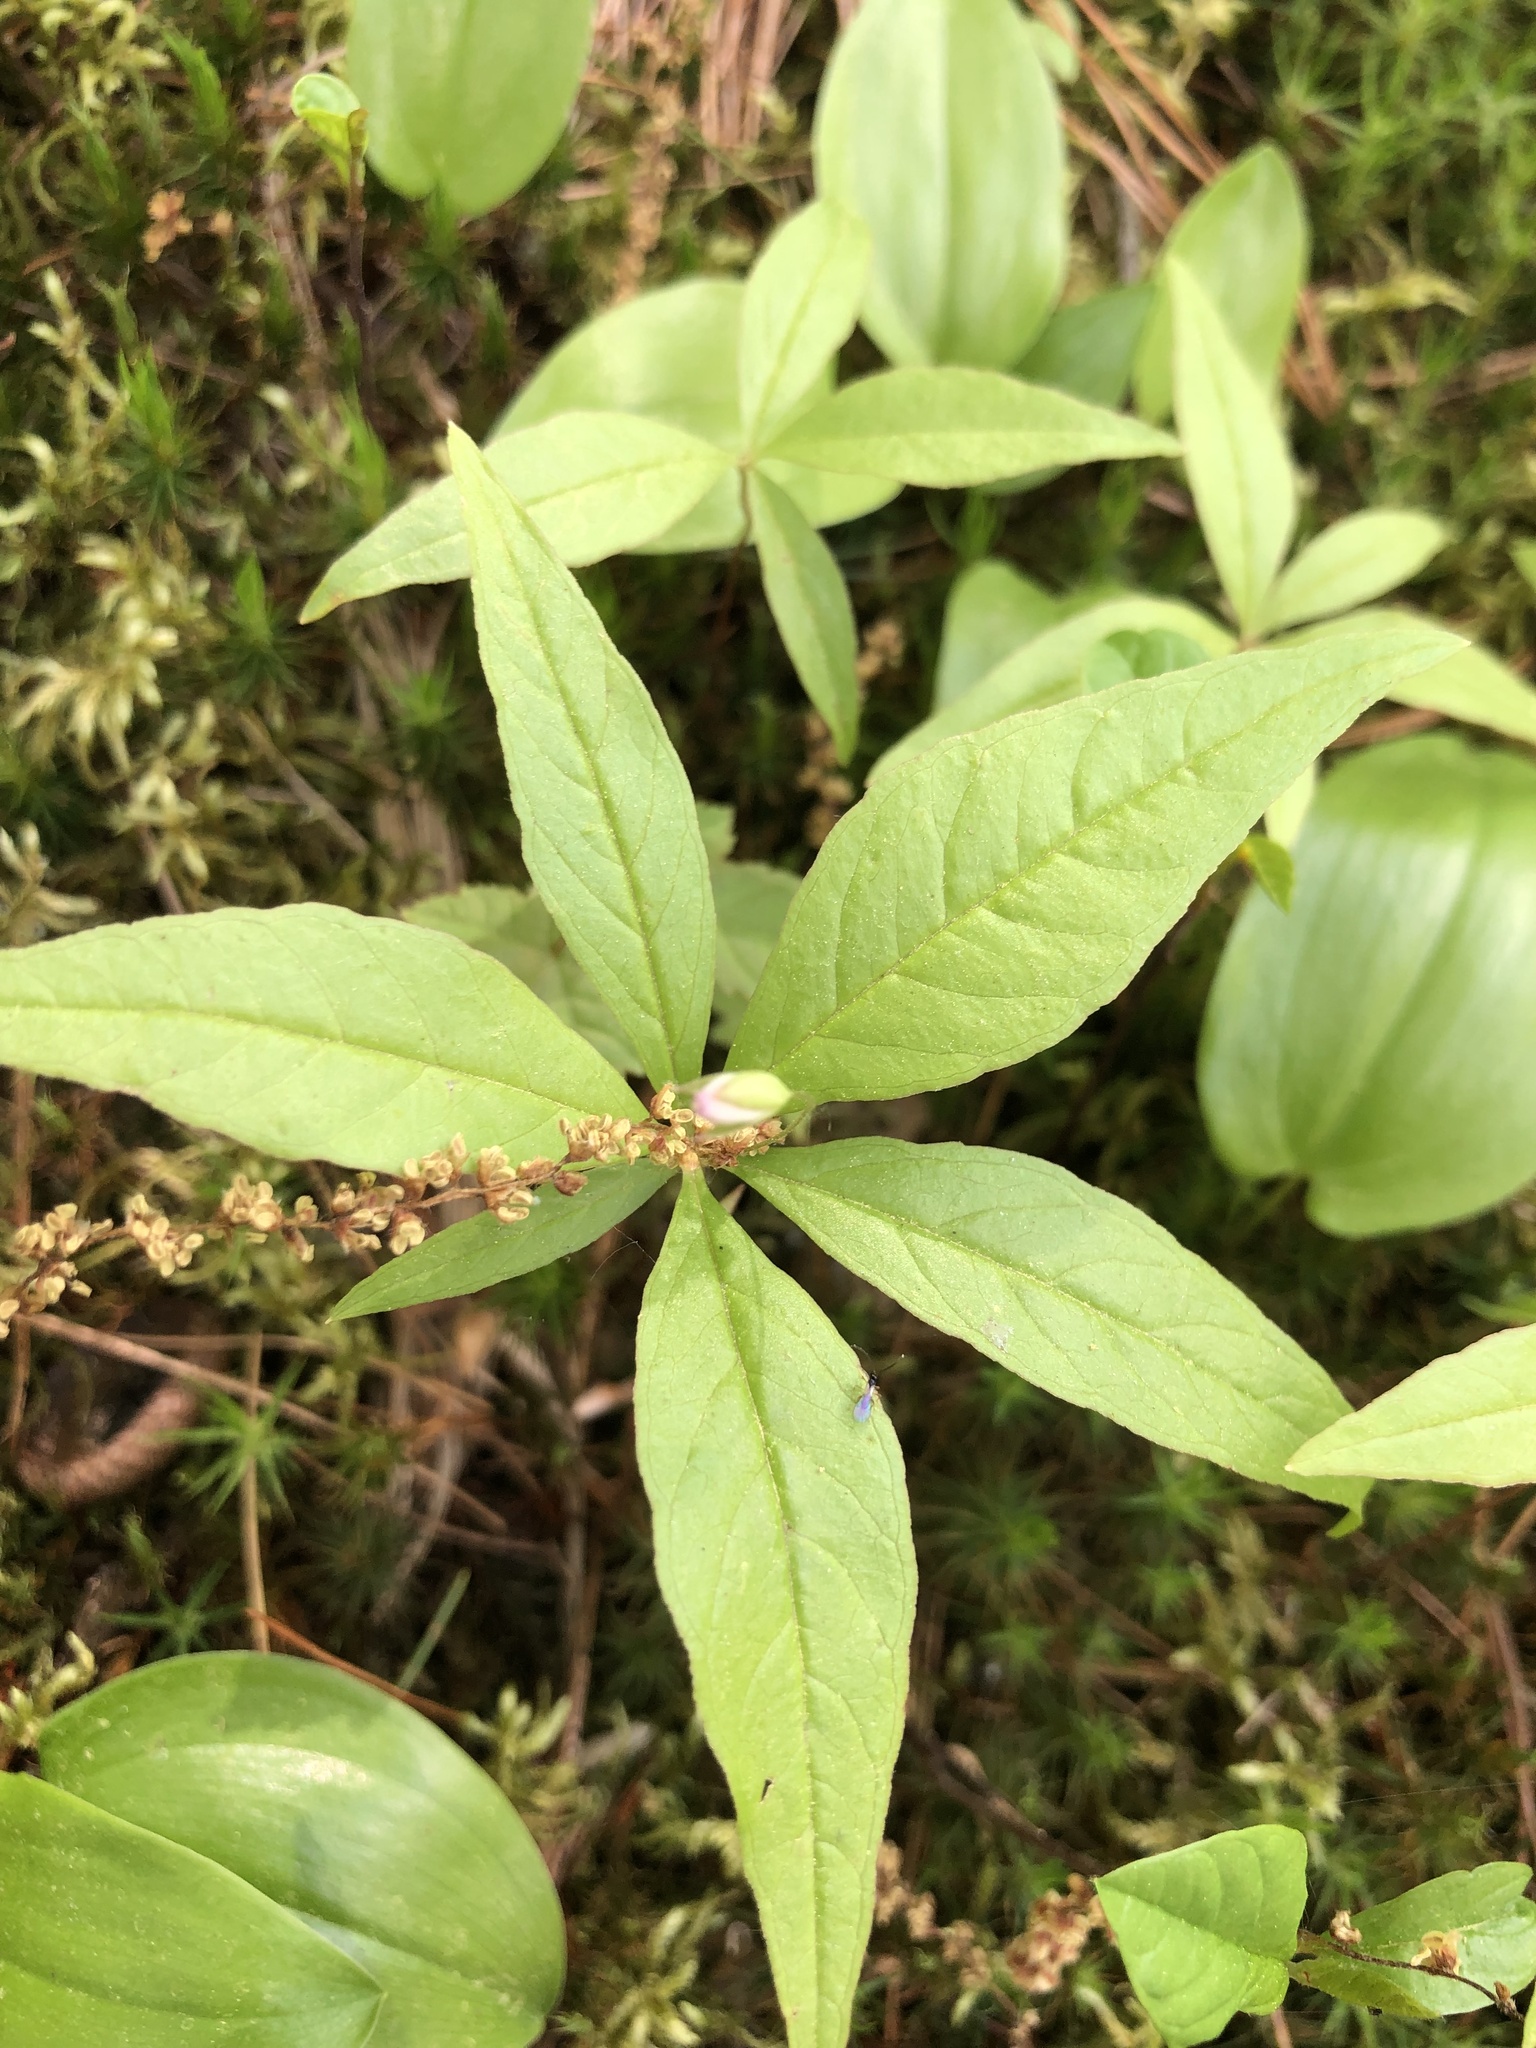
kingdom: Plantae
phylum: Tracheophyta
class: Magnoliopsida
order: Ericales
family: Primulaceae
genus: Lysimachia
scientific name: Lysimachia borealis
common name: American starflower
